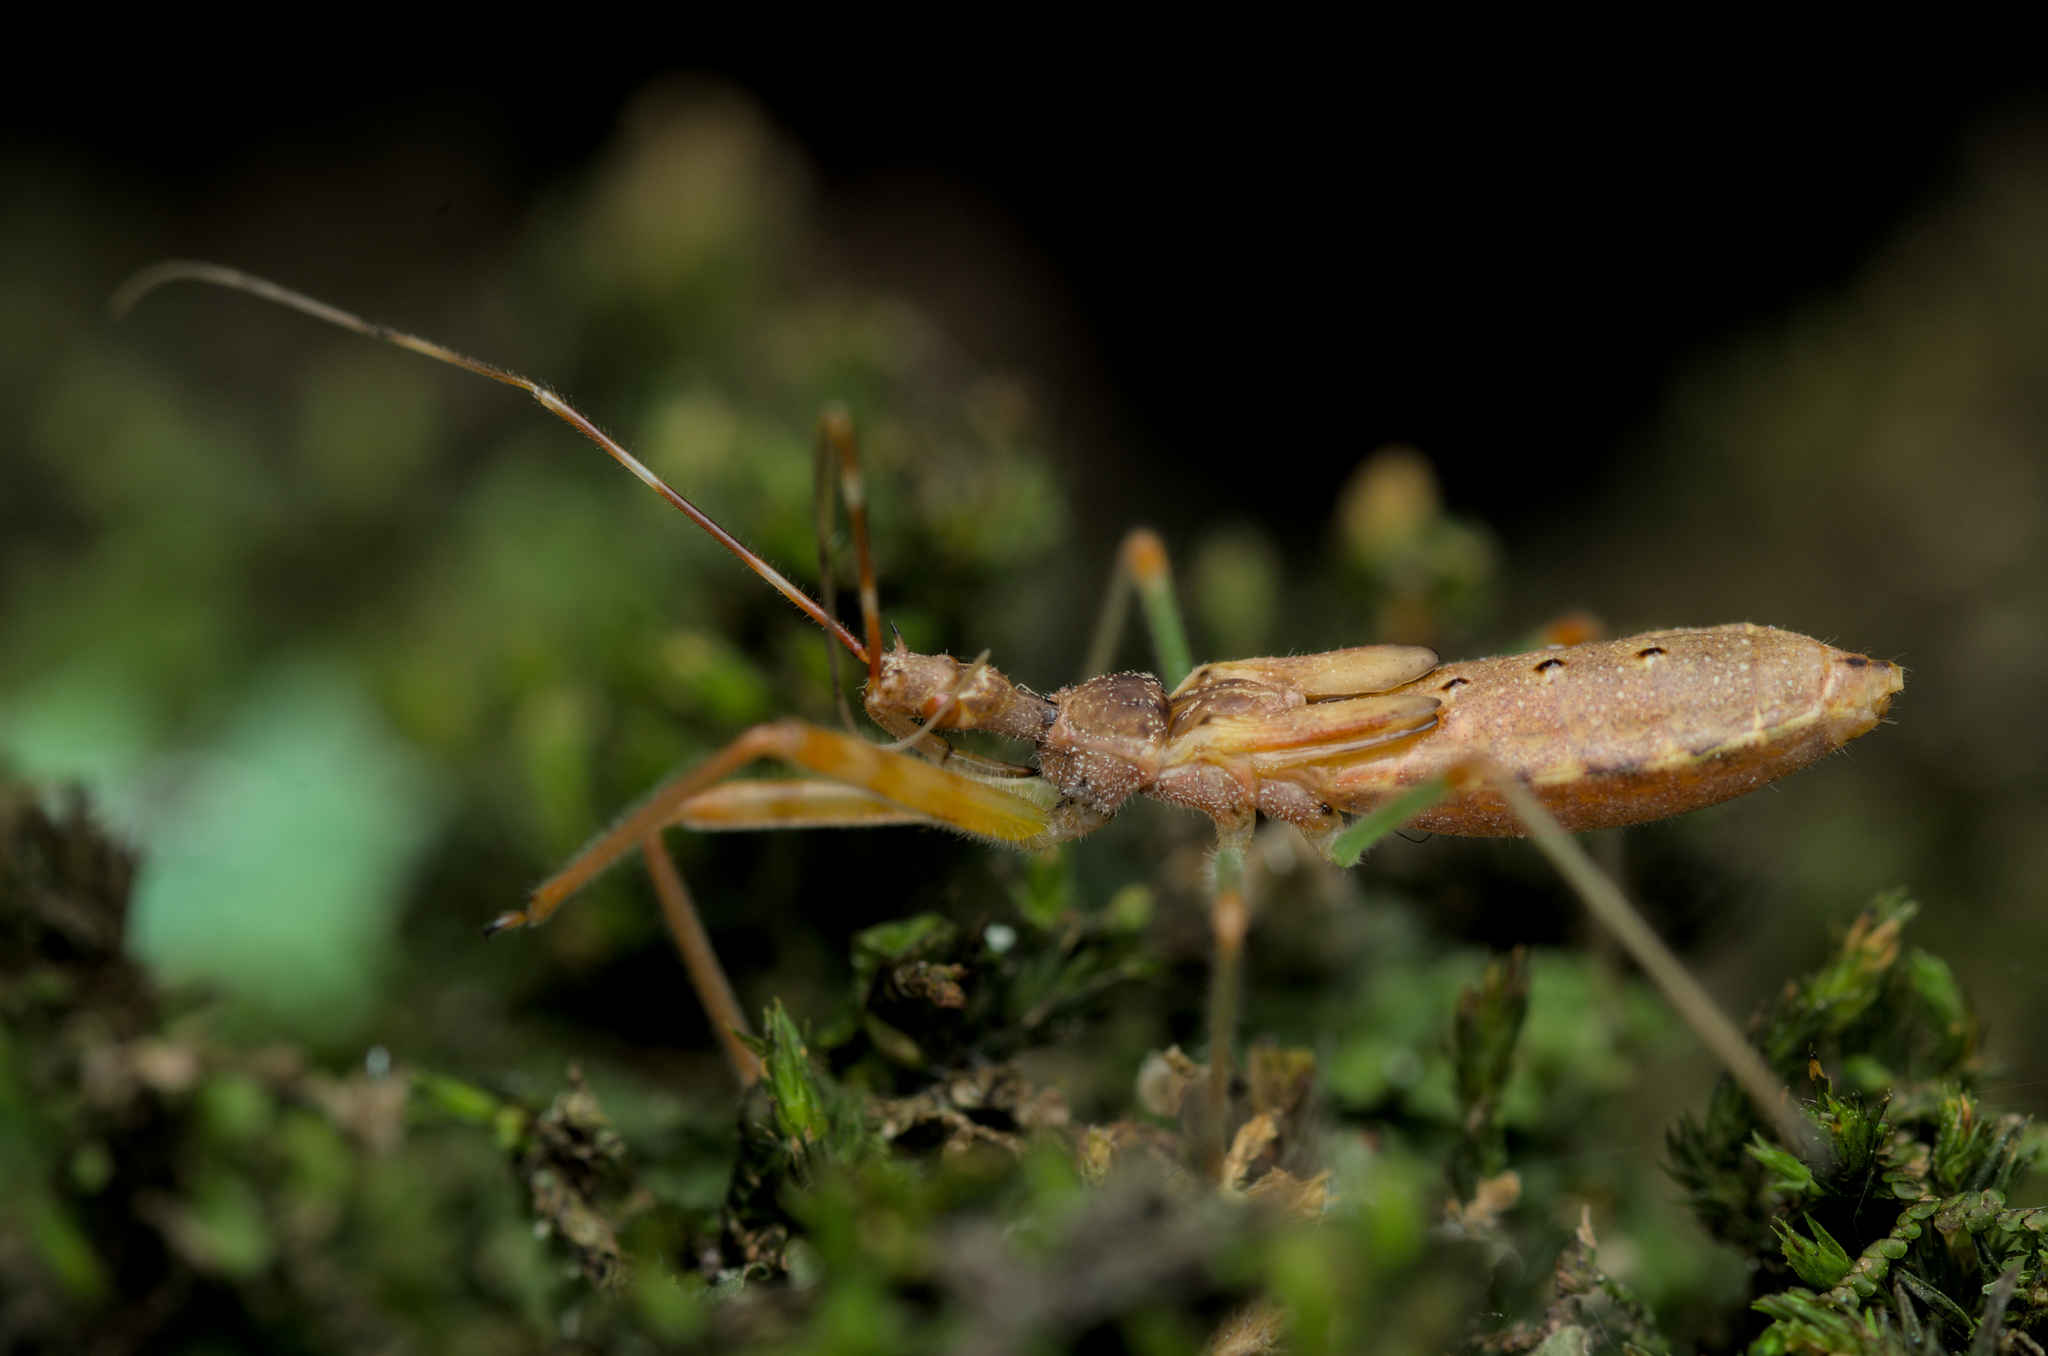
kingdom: Animalia
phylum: Arthropoda
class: Insecta
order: Hemiptera
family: Reduviidae
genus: Nagusta
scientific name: Nagusta goedelii
